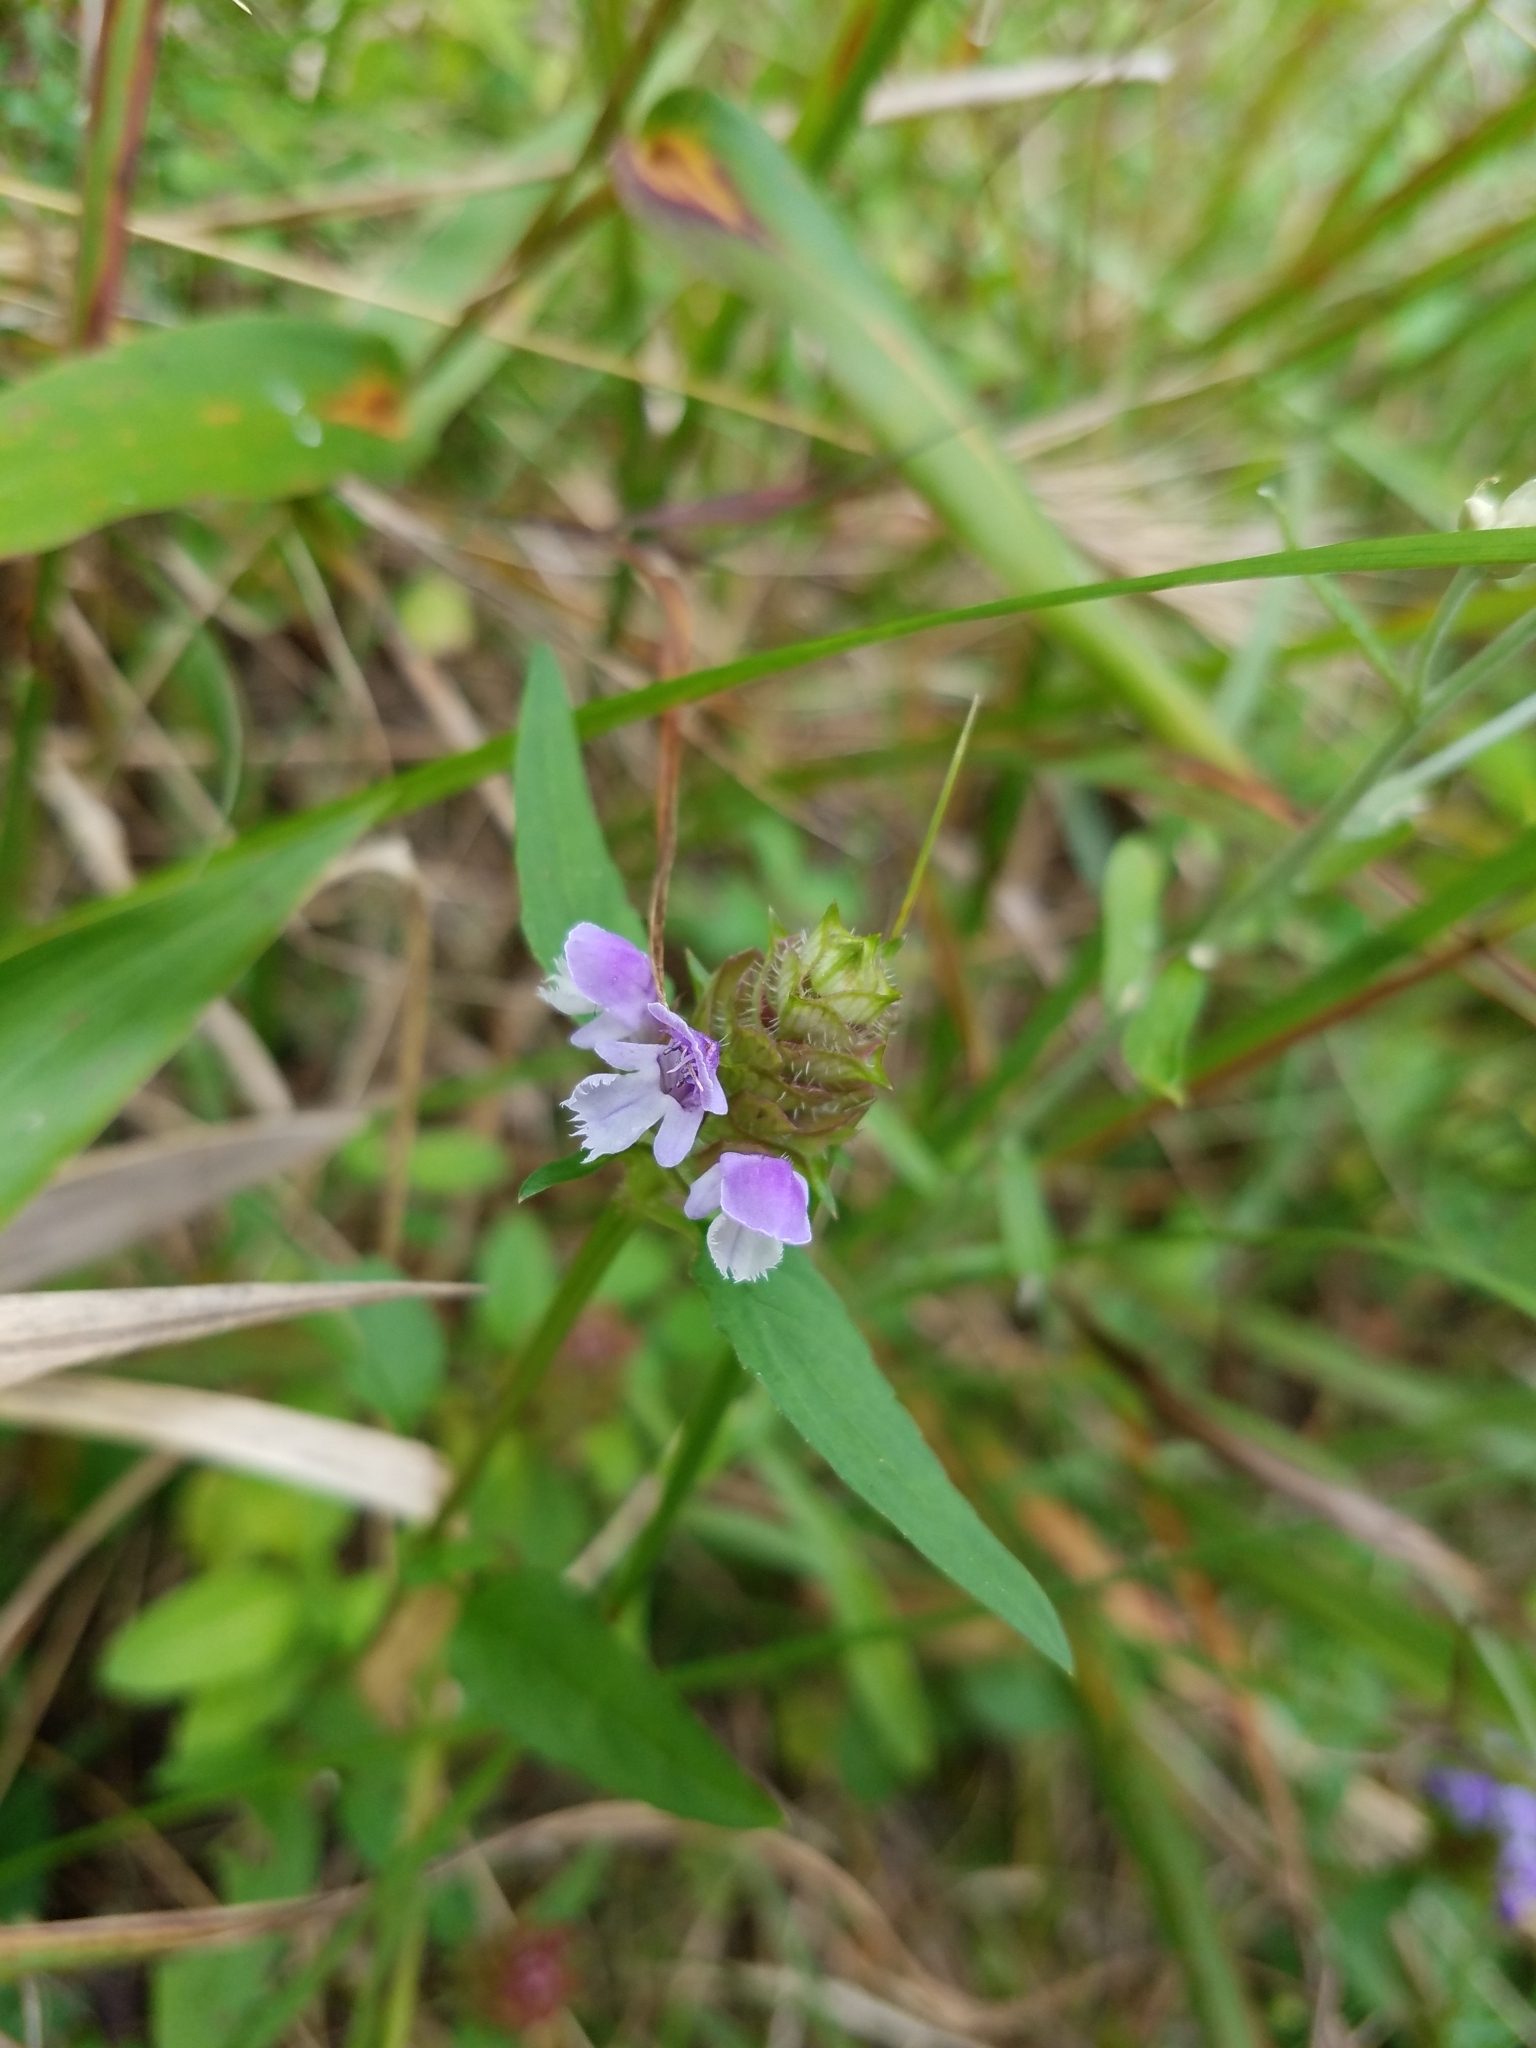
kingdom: Plantae
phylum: Tracheophyta
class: Magnoliopsida
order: Lamiales
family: Lamiaceae
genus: Prunella
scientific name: Prunella vulgaris
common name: Heal-all
